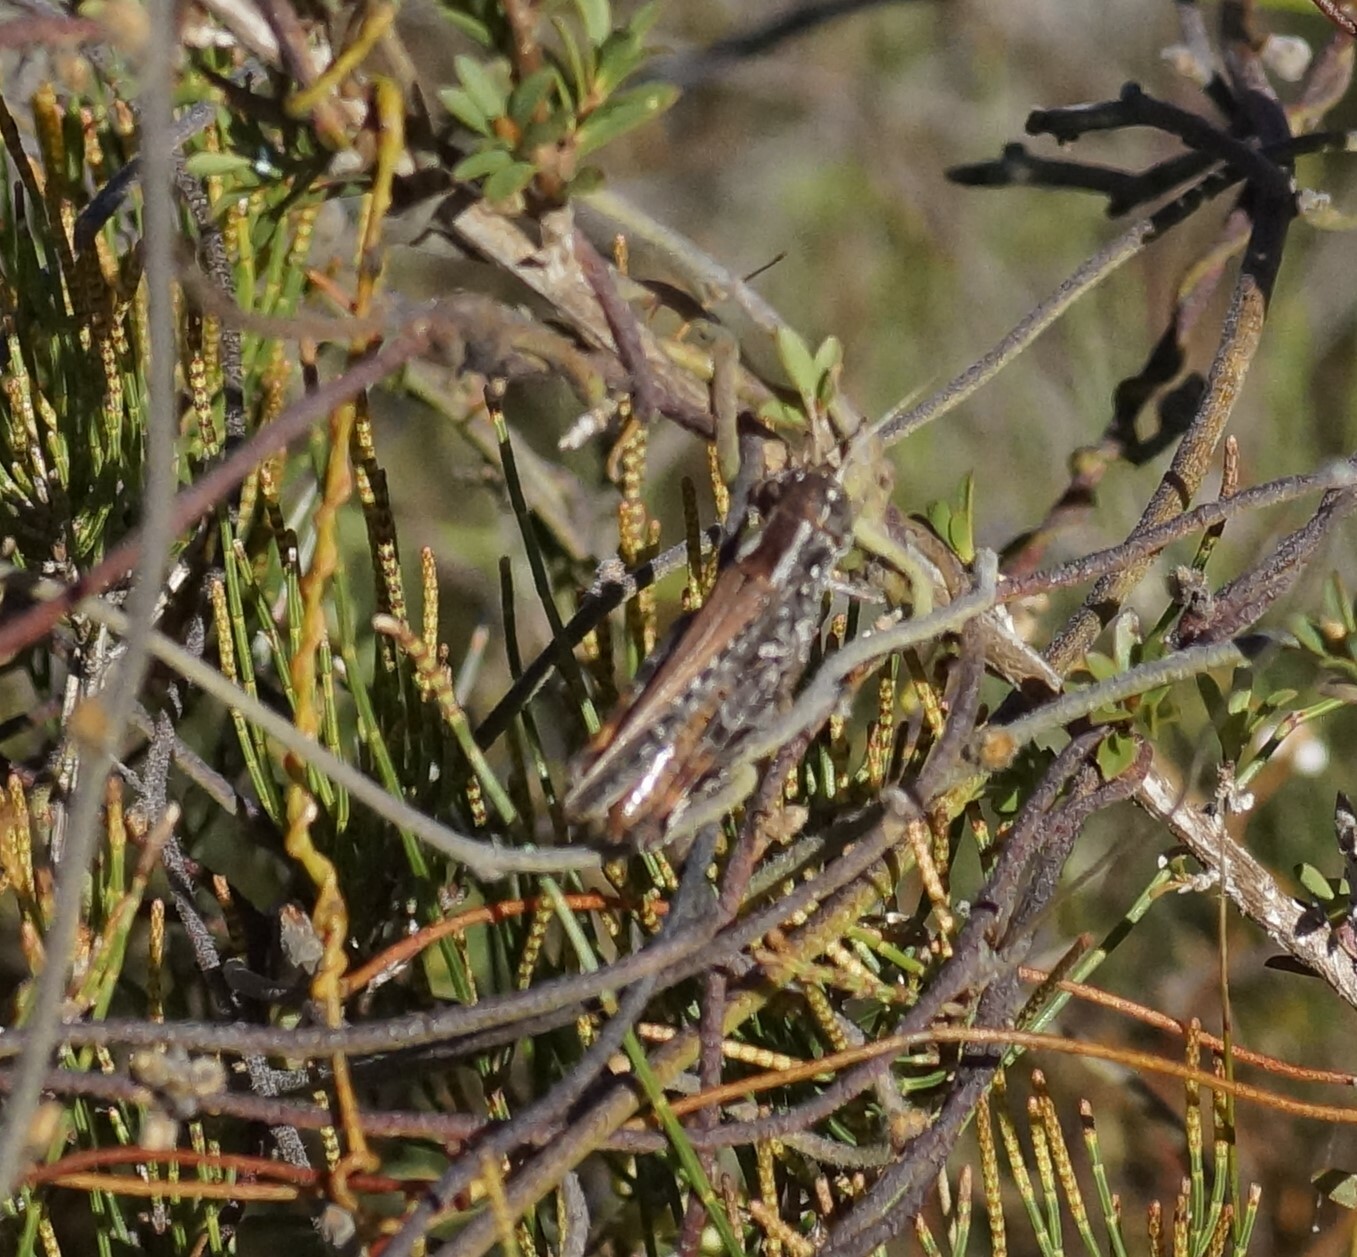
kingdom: Animalia
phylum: Arthropoda
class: Insecta
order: Orthoptera
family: Acrididae
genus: Exarna
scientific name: Exarna includens
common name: Red-legged exarna
